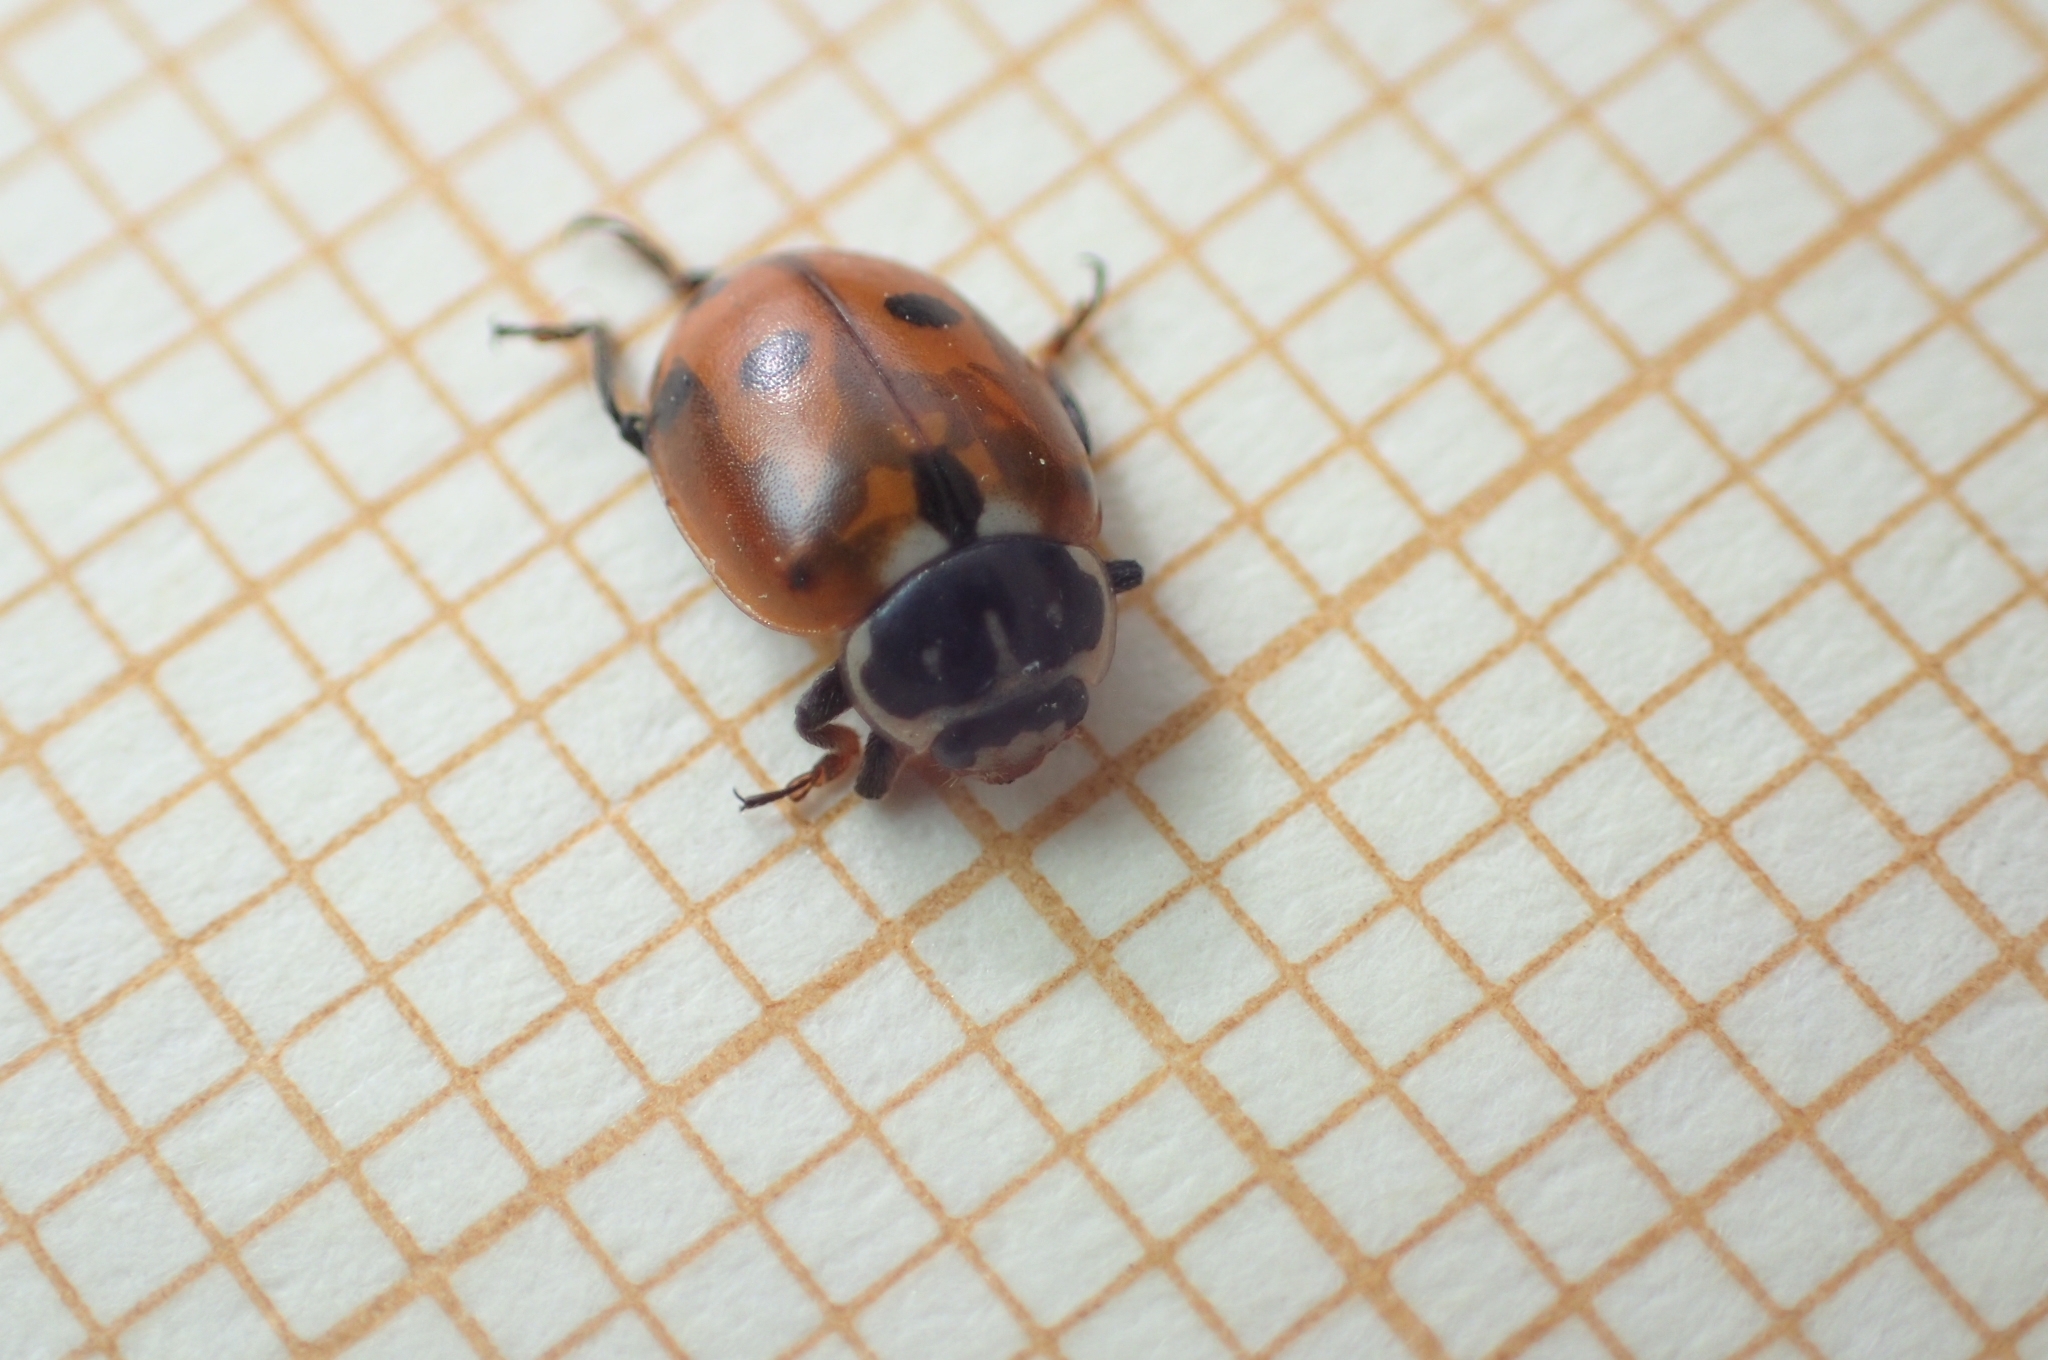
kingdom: Animalia
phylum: Arthropoda
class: Insecta
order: Coleoptera
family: Coccinellidae
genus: Hippodamia
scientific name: Hippodamia variegata
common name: Ladybird beetle
